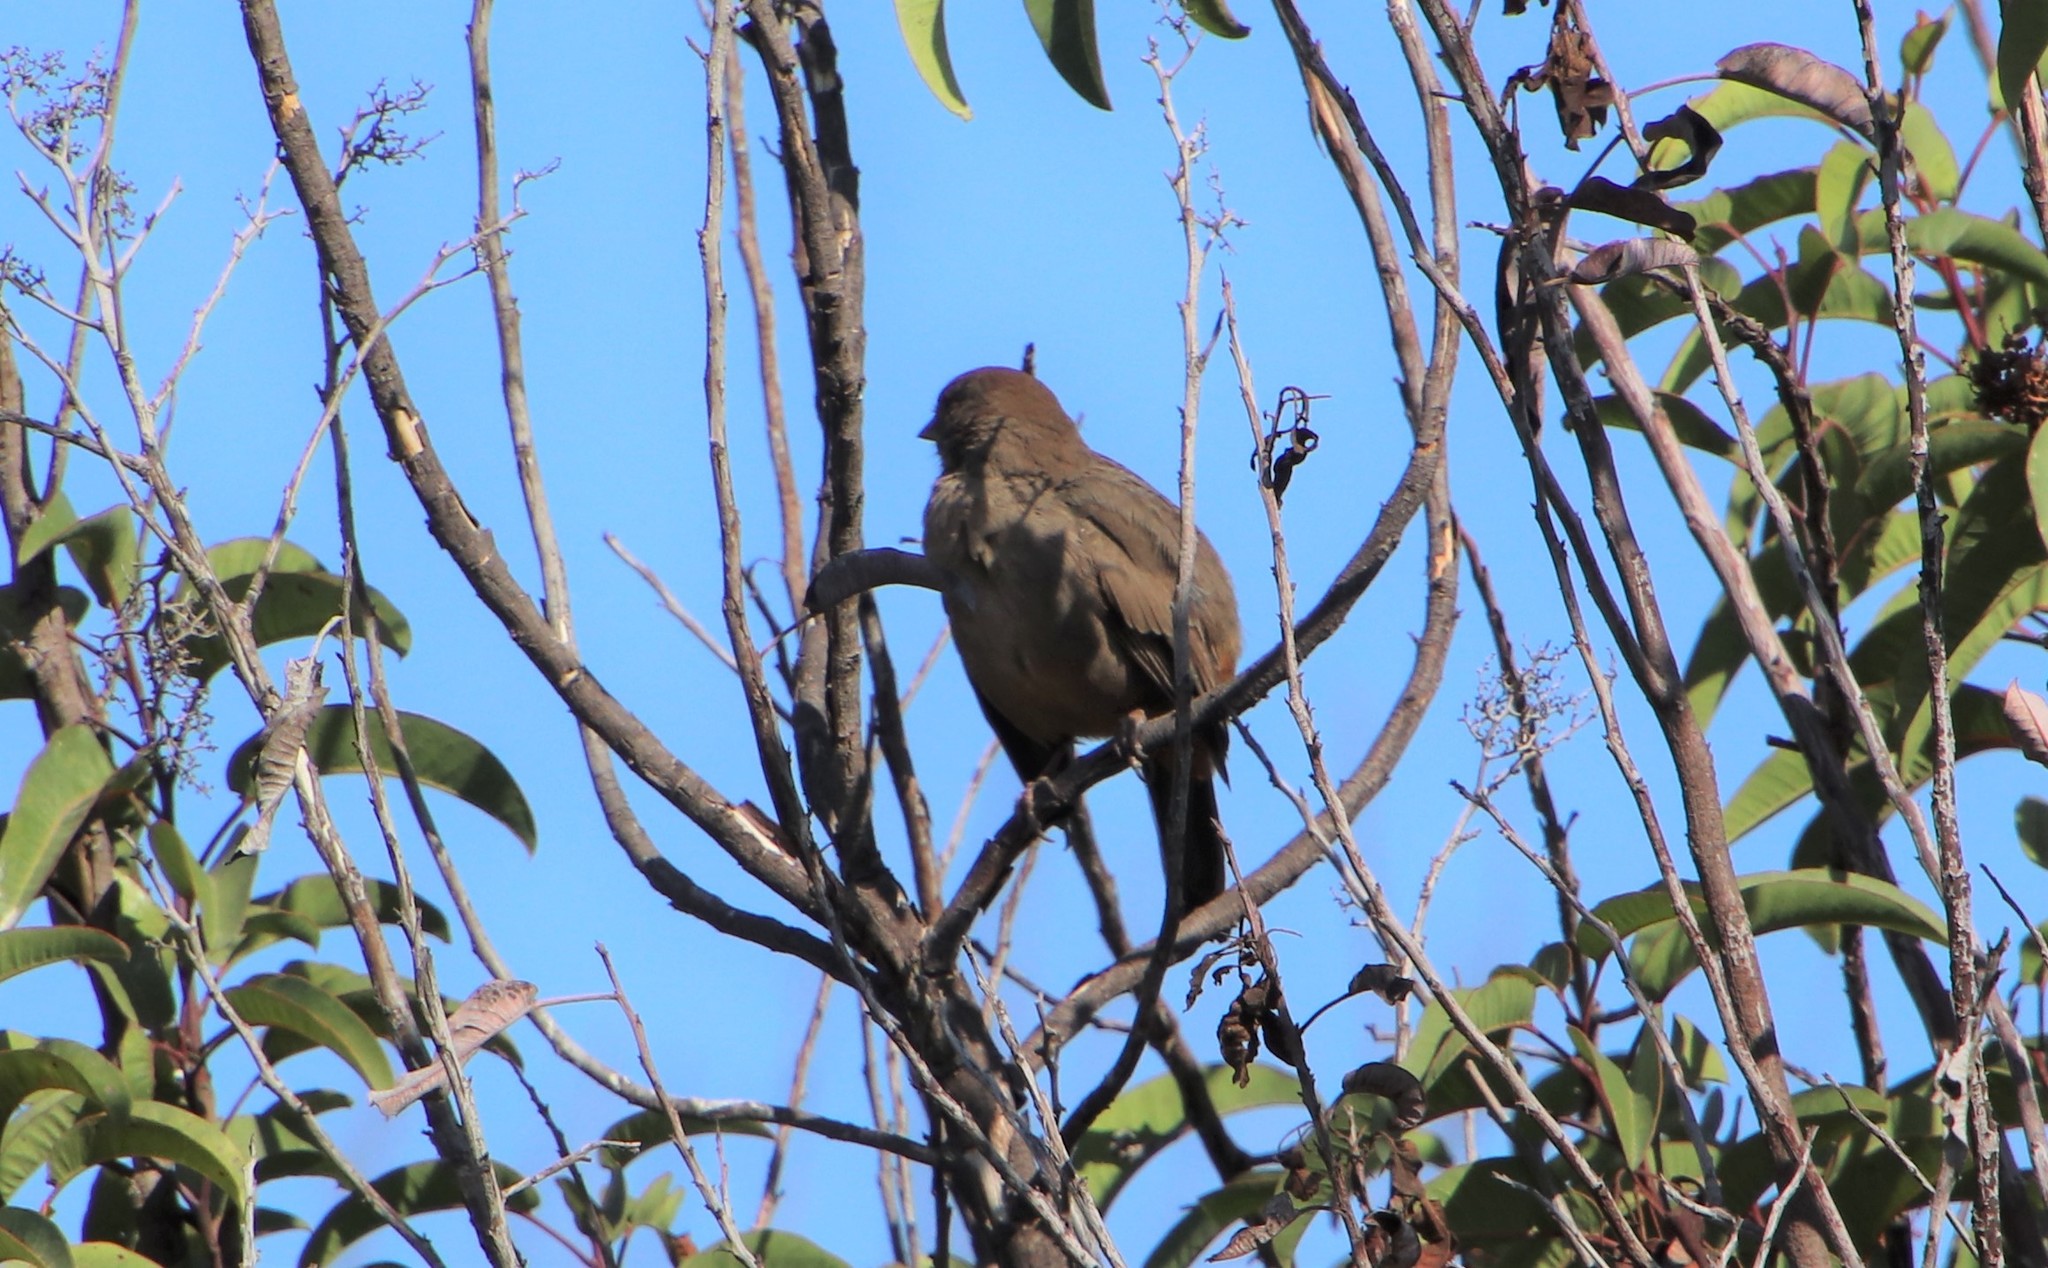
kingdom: Animalia
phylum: Chordata
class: Aves
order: Passeriformes
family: Passerellidae
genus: Melozone
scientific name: Melozone crissalis
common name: California towhee
